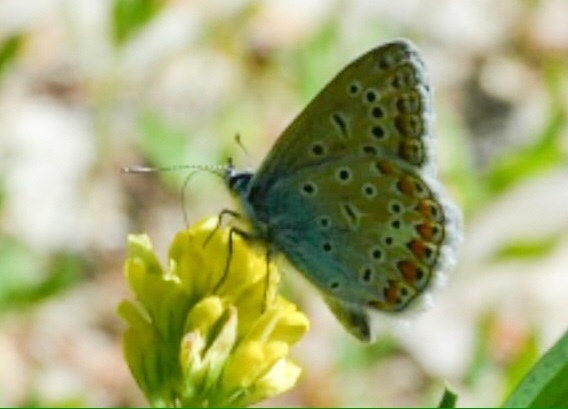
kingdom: Animalia
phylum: Arthropoda
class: Insecta
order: Lepidoptera
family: Lycaenidae
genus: Polyommatus
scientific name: Polyommatus icarus
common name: Common blue
